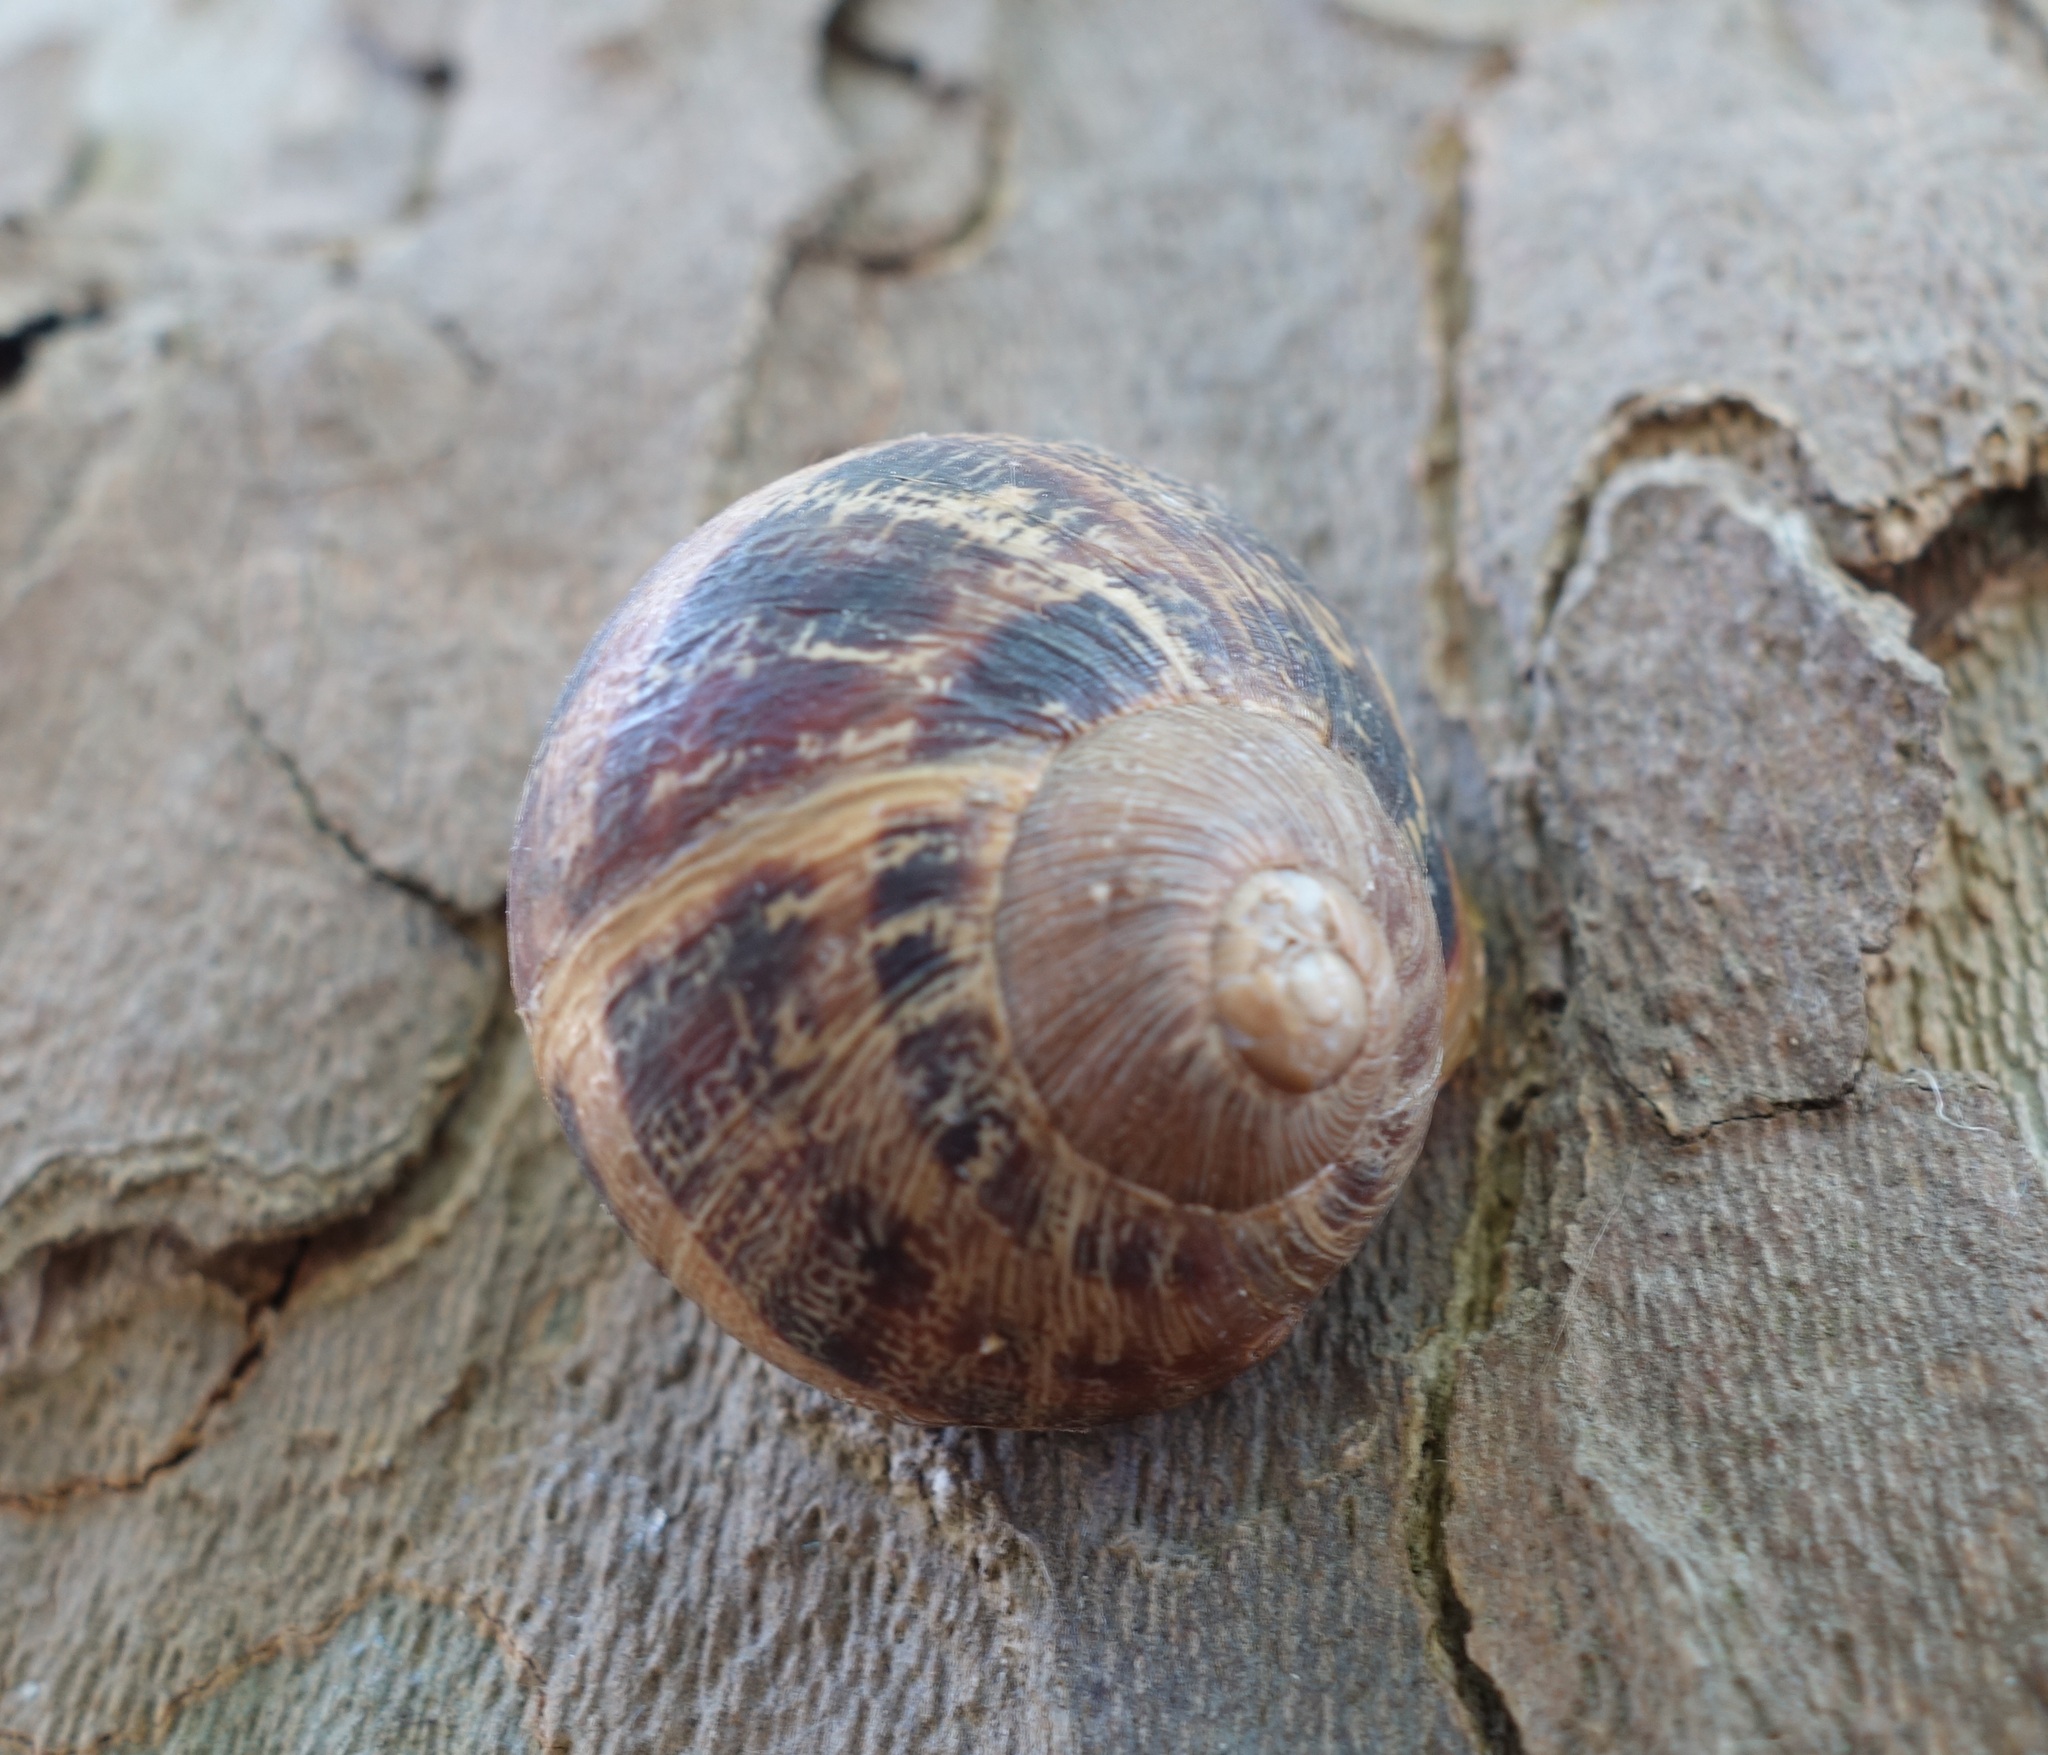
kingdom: Animalia
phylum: Mollusca
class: Gastropoda
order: Stylommatophora
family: Helicidae
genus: Cornu
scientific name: Cornu aspersum
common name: Brown garden snail
